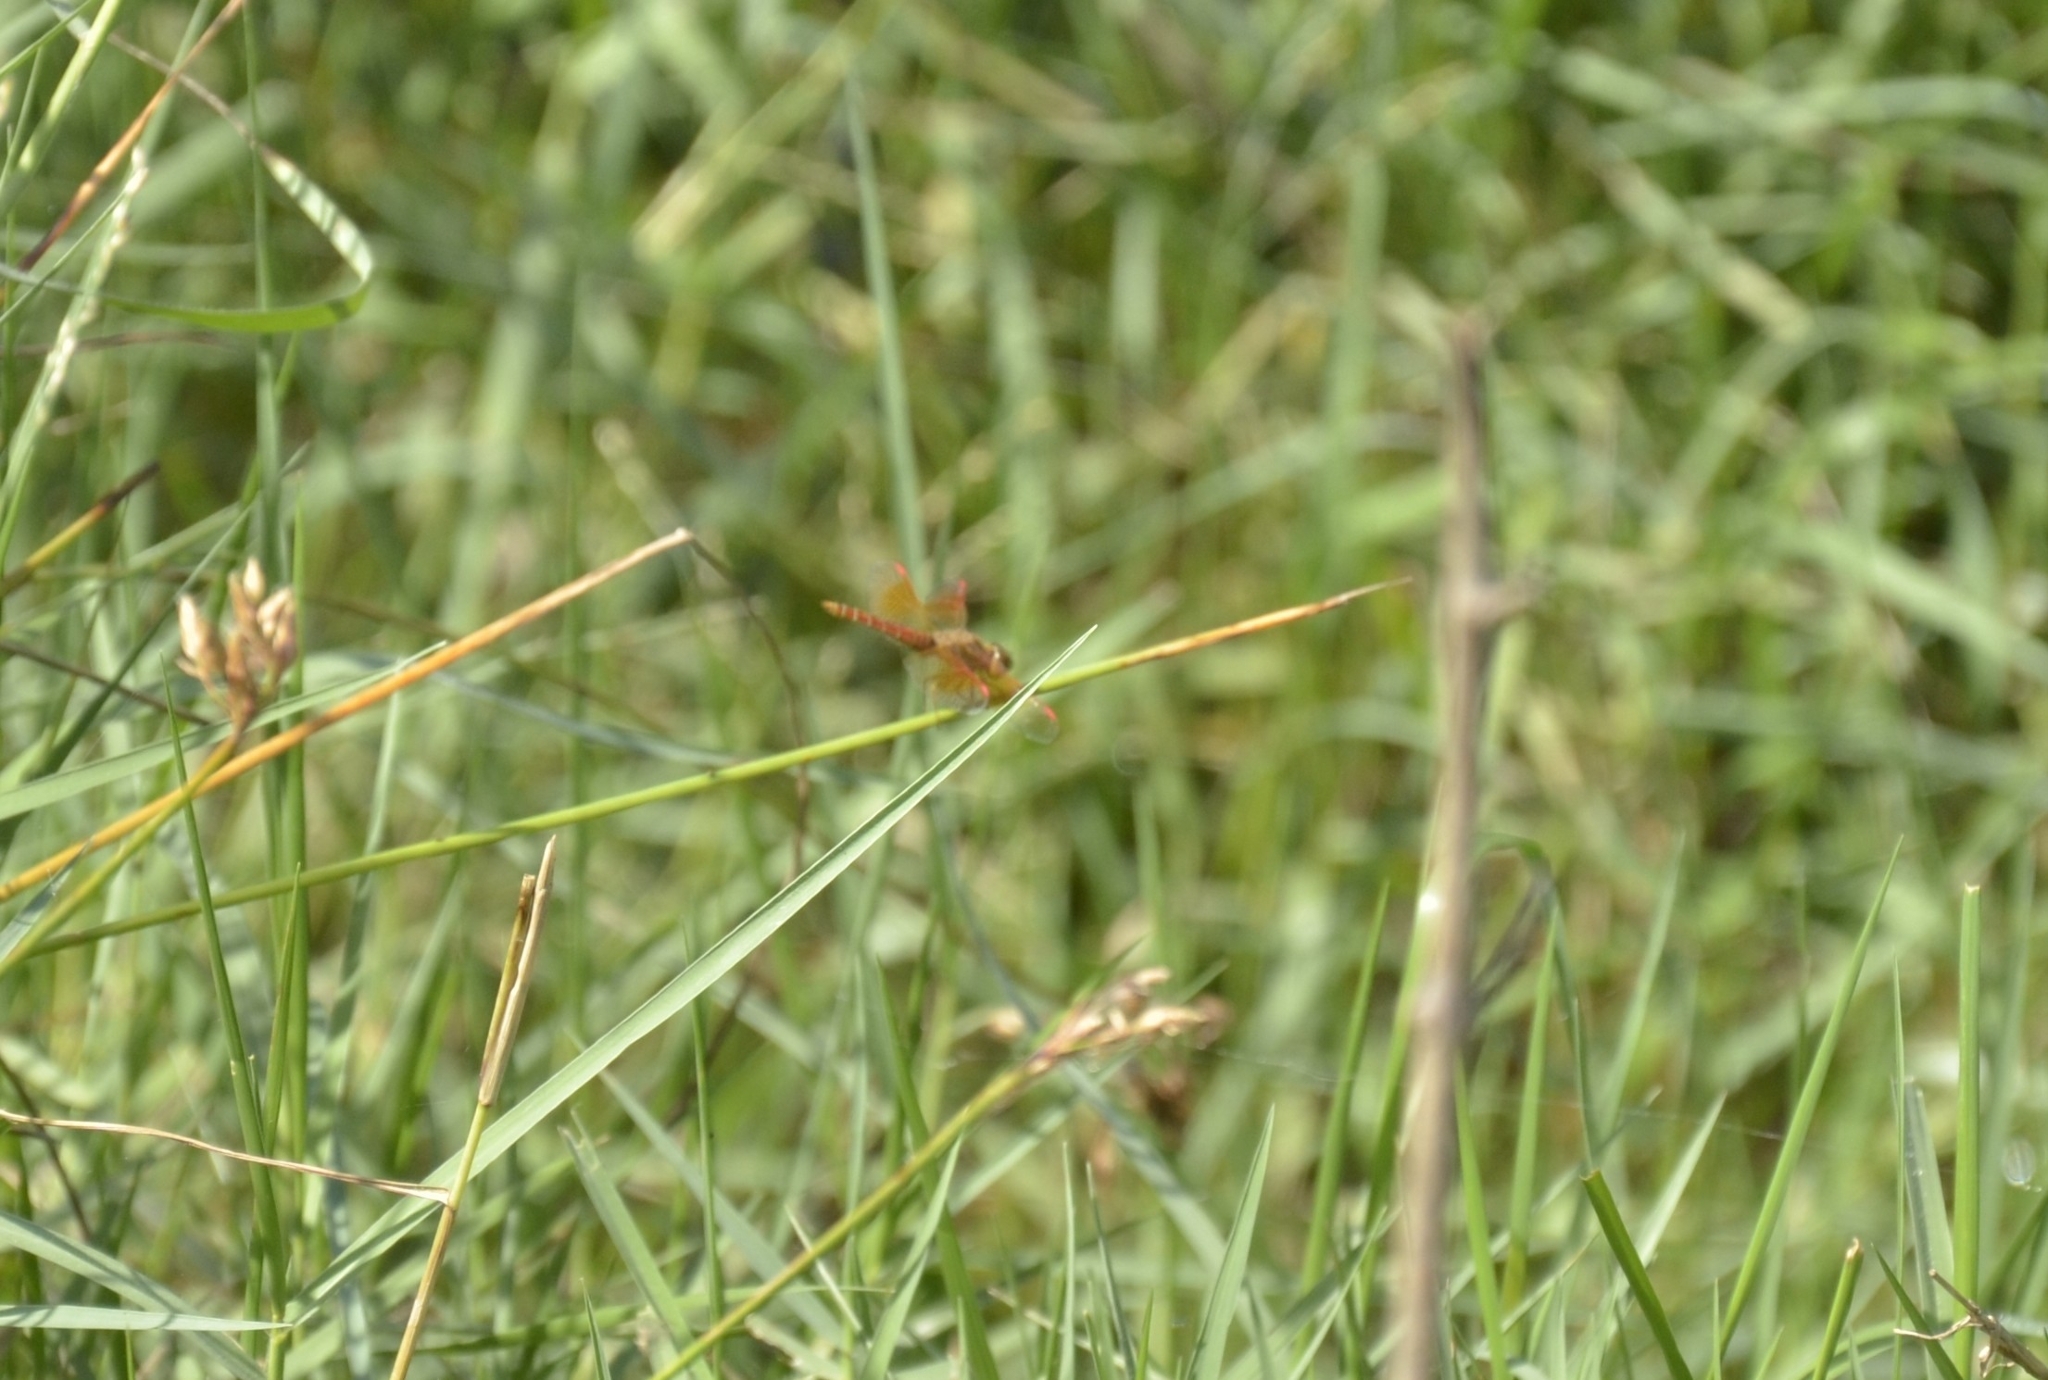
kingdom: Animalia
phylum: Arthropoda
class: Insecta
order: Odonata
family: Libellulidae
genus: Brachythemis
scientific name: Brachythemis contaminata
